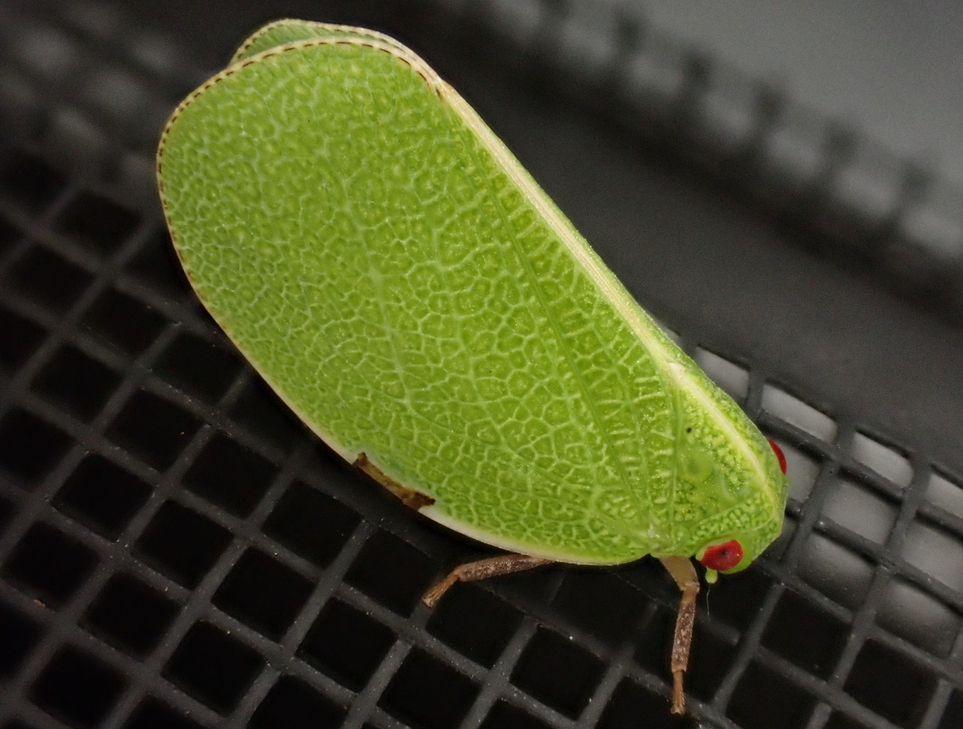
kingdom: Animalia
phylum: Arthropoda
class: Insecta
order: Hemiptera
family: Acanaloniidae
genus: Acanalonia
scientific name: Acanalonia servillei
